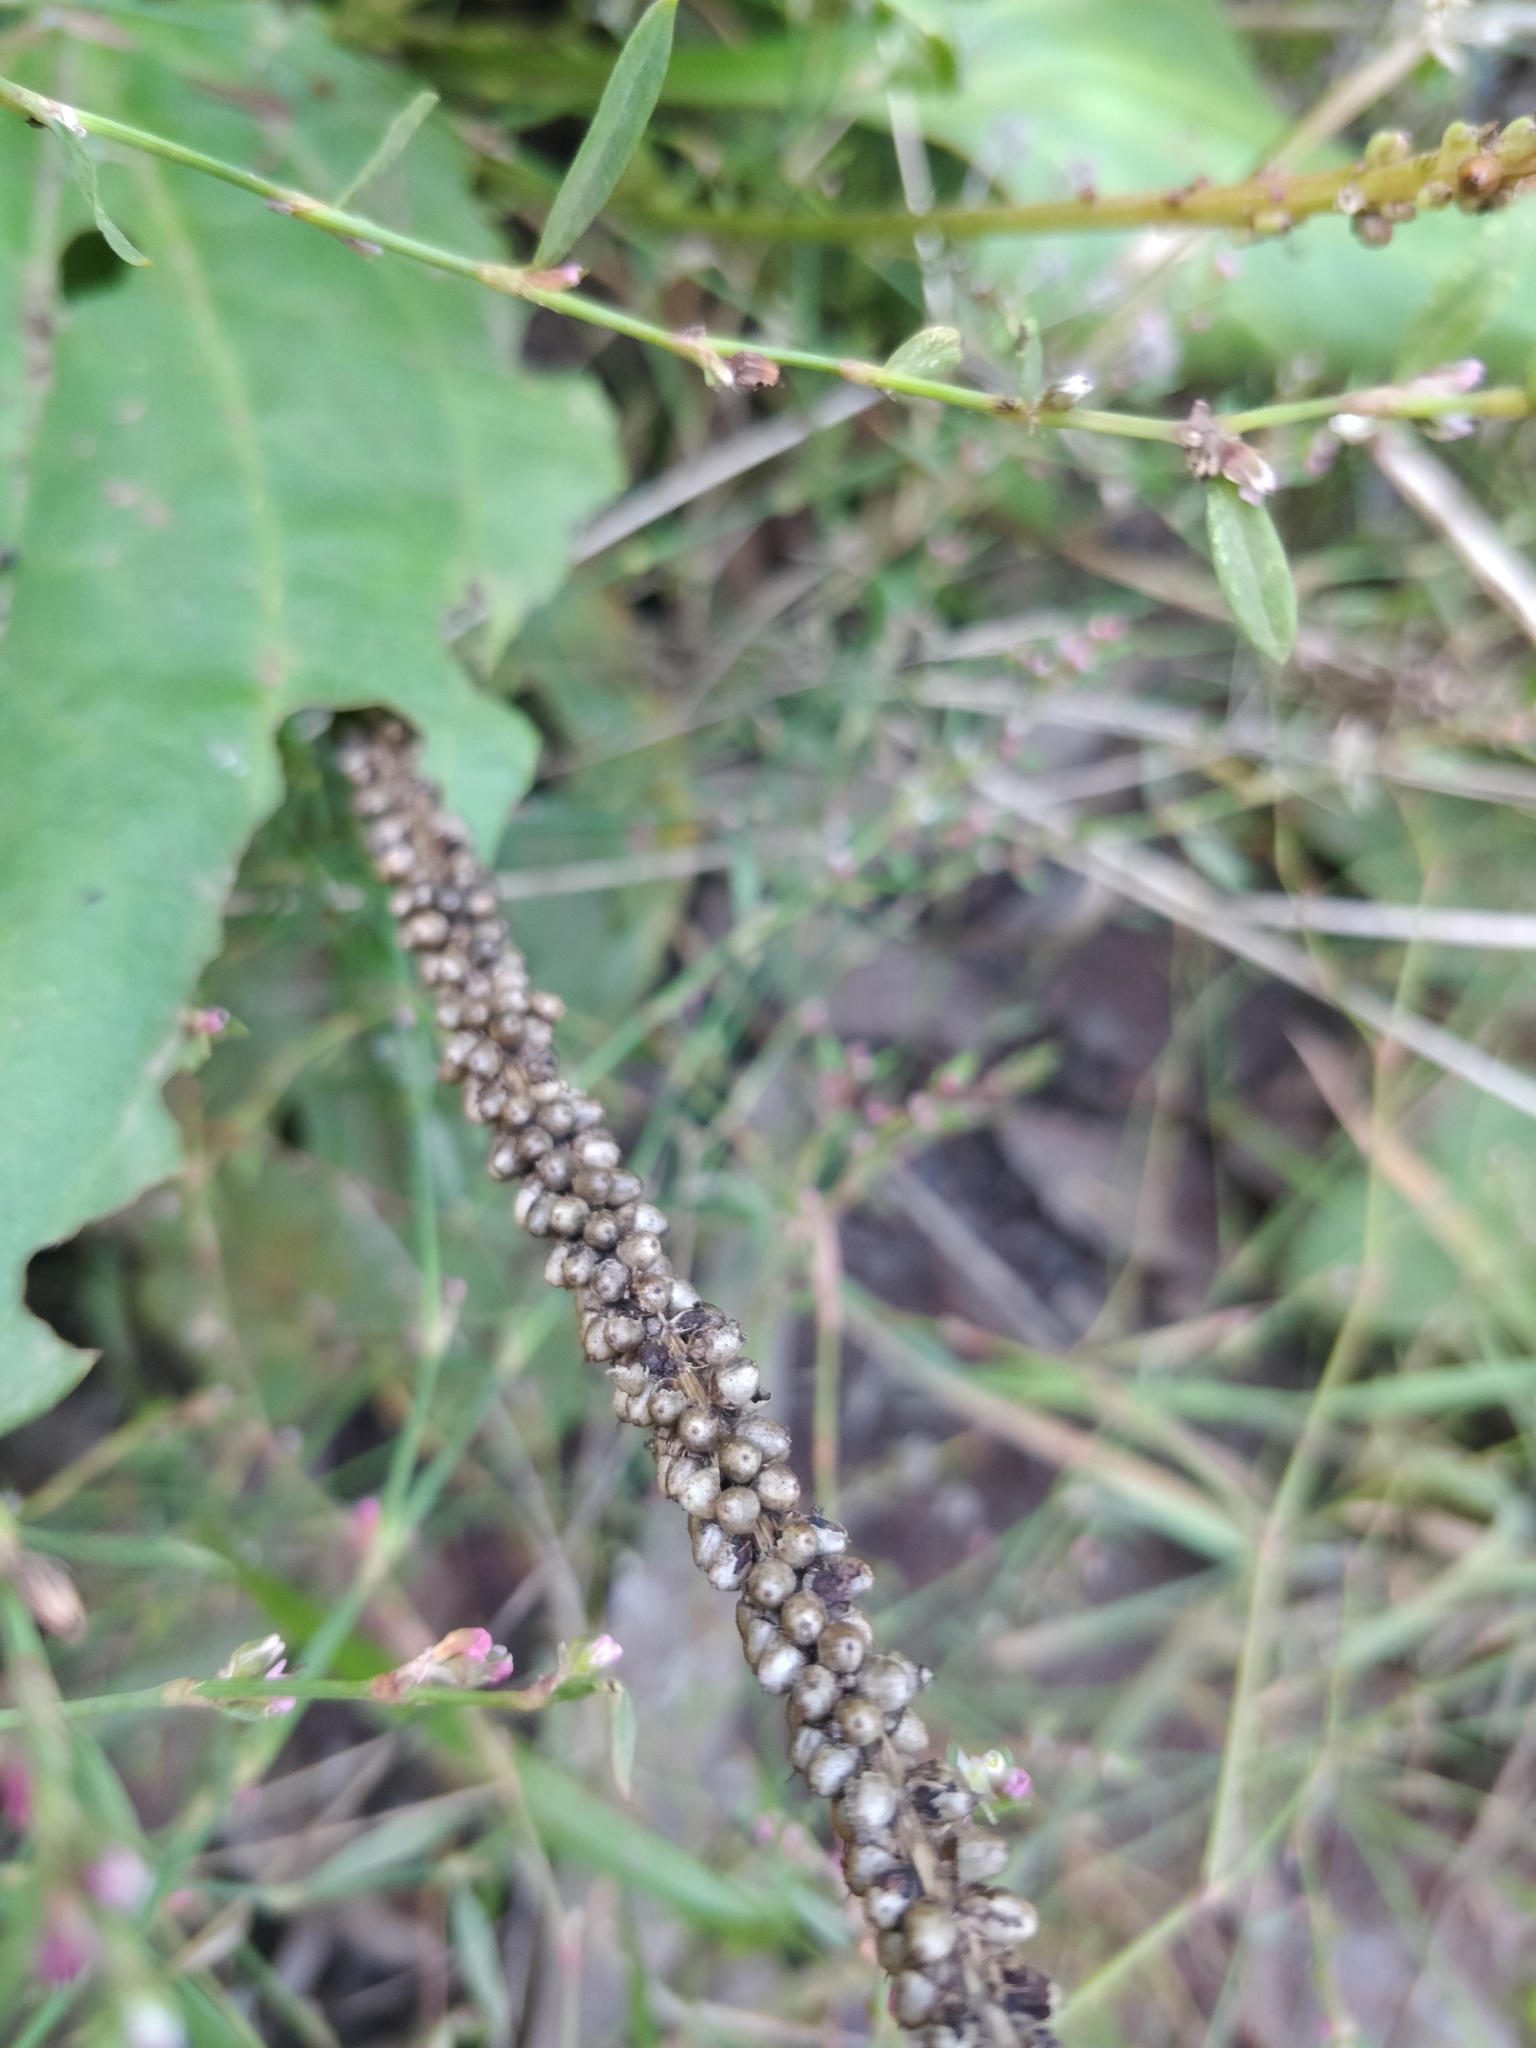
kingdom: Plantae
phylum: Tracheophyta
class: Magnoliopsida
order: Lamiales
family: Plantaginaceae
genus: Plantago
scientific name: Plantago major
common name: Common plantain
